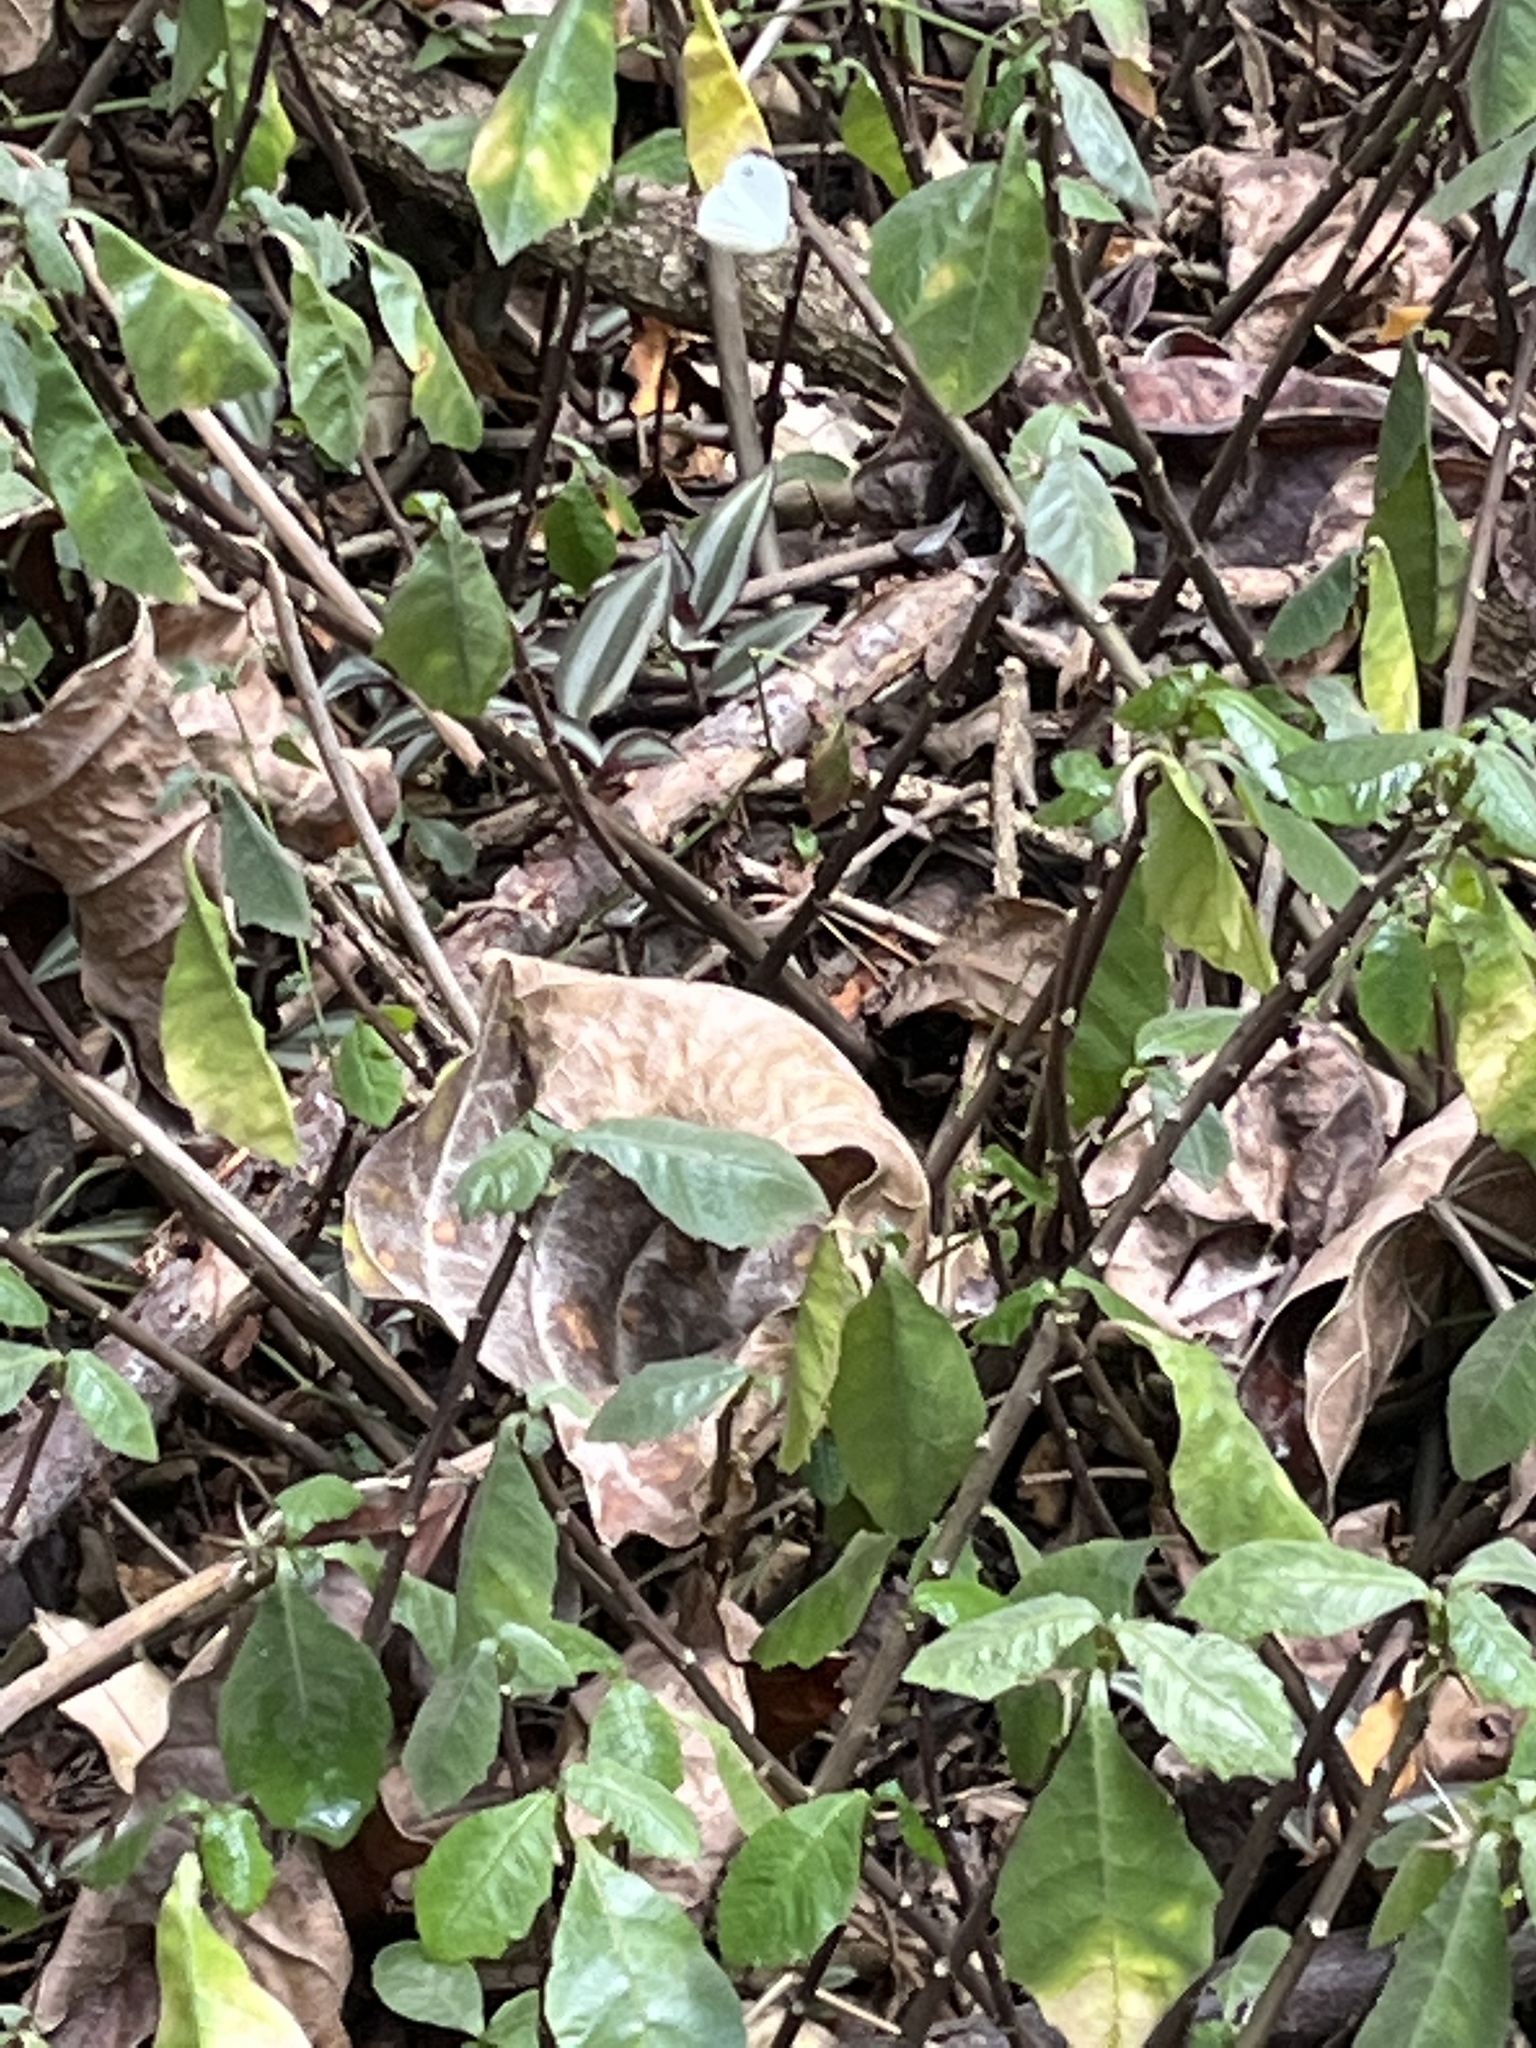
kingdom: Animalia
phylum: Arthropoda
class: Insecta
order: Lepidoptera
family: Pieridae
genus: Leptosia
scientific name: Leptosia alcesta
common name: African wood white
